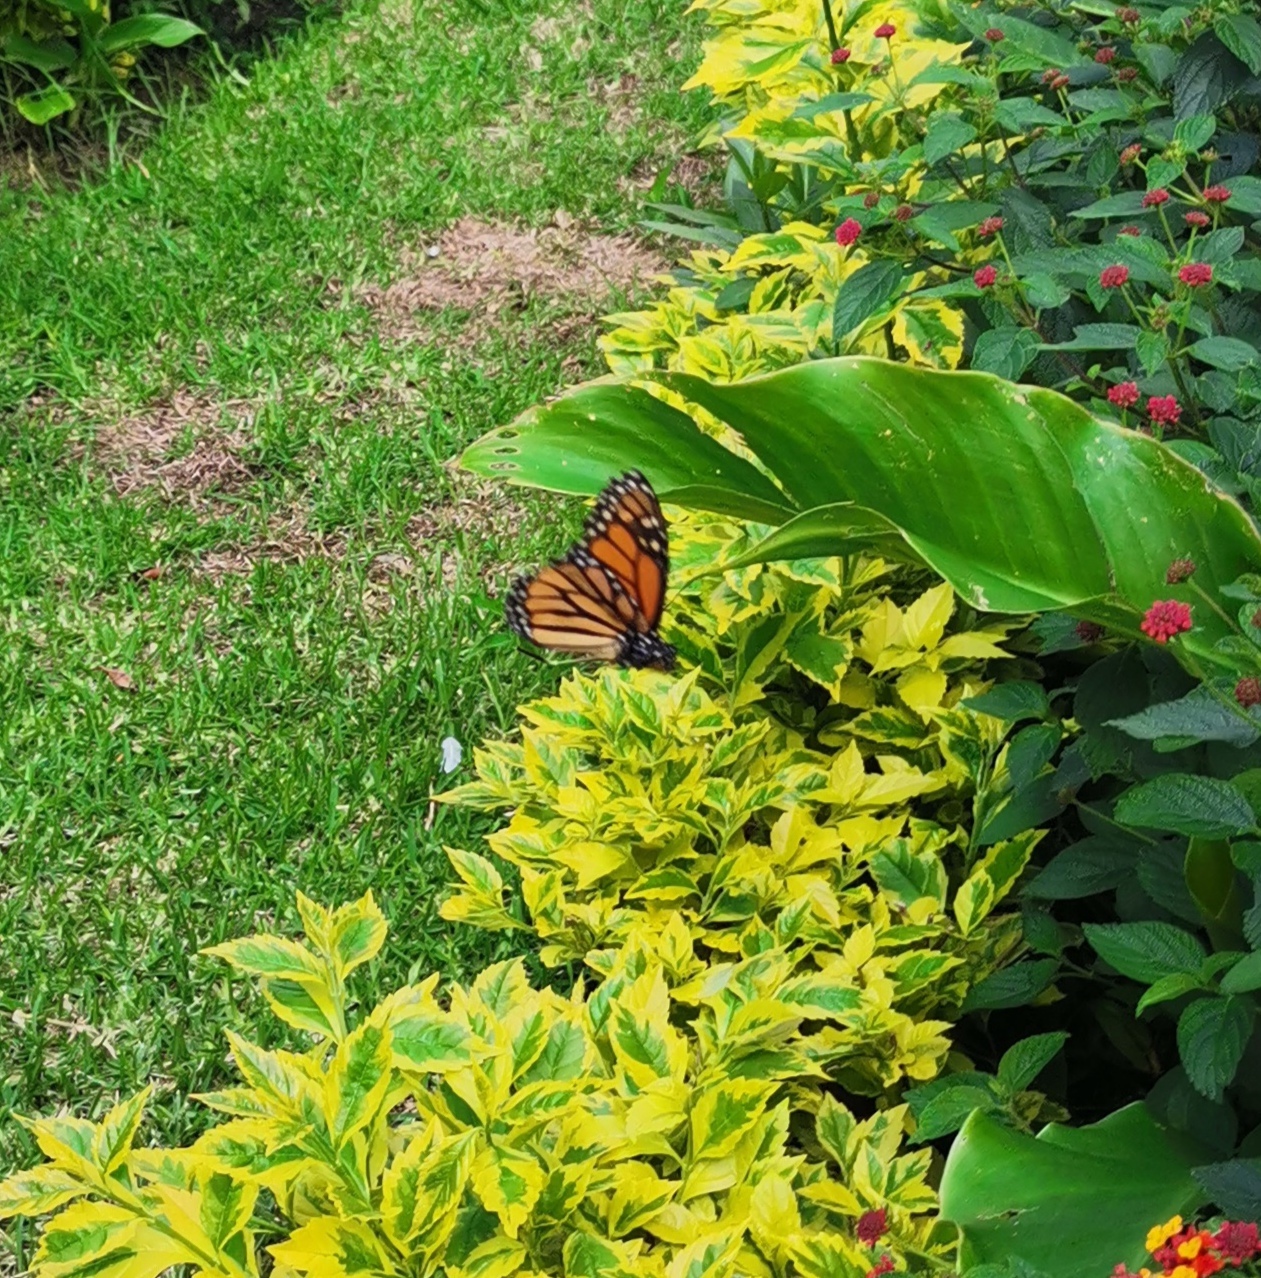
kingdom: Animalia
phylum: Arthropoda
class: Insecta
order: Lepidoptera
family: Nymphalidae
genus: Danaus
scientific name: Danaus plexippus
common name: Monarch
